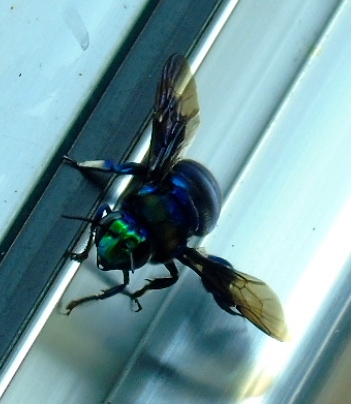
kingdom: Animalia
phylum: Arthropoda
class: Insecta
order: Hymenoptera
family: Apidae
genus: Apidae
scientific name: Apidae
